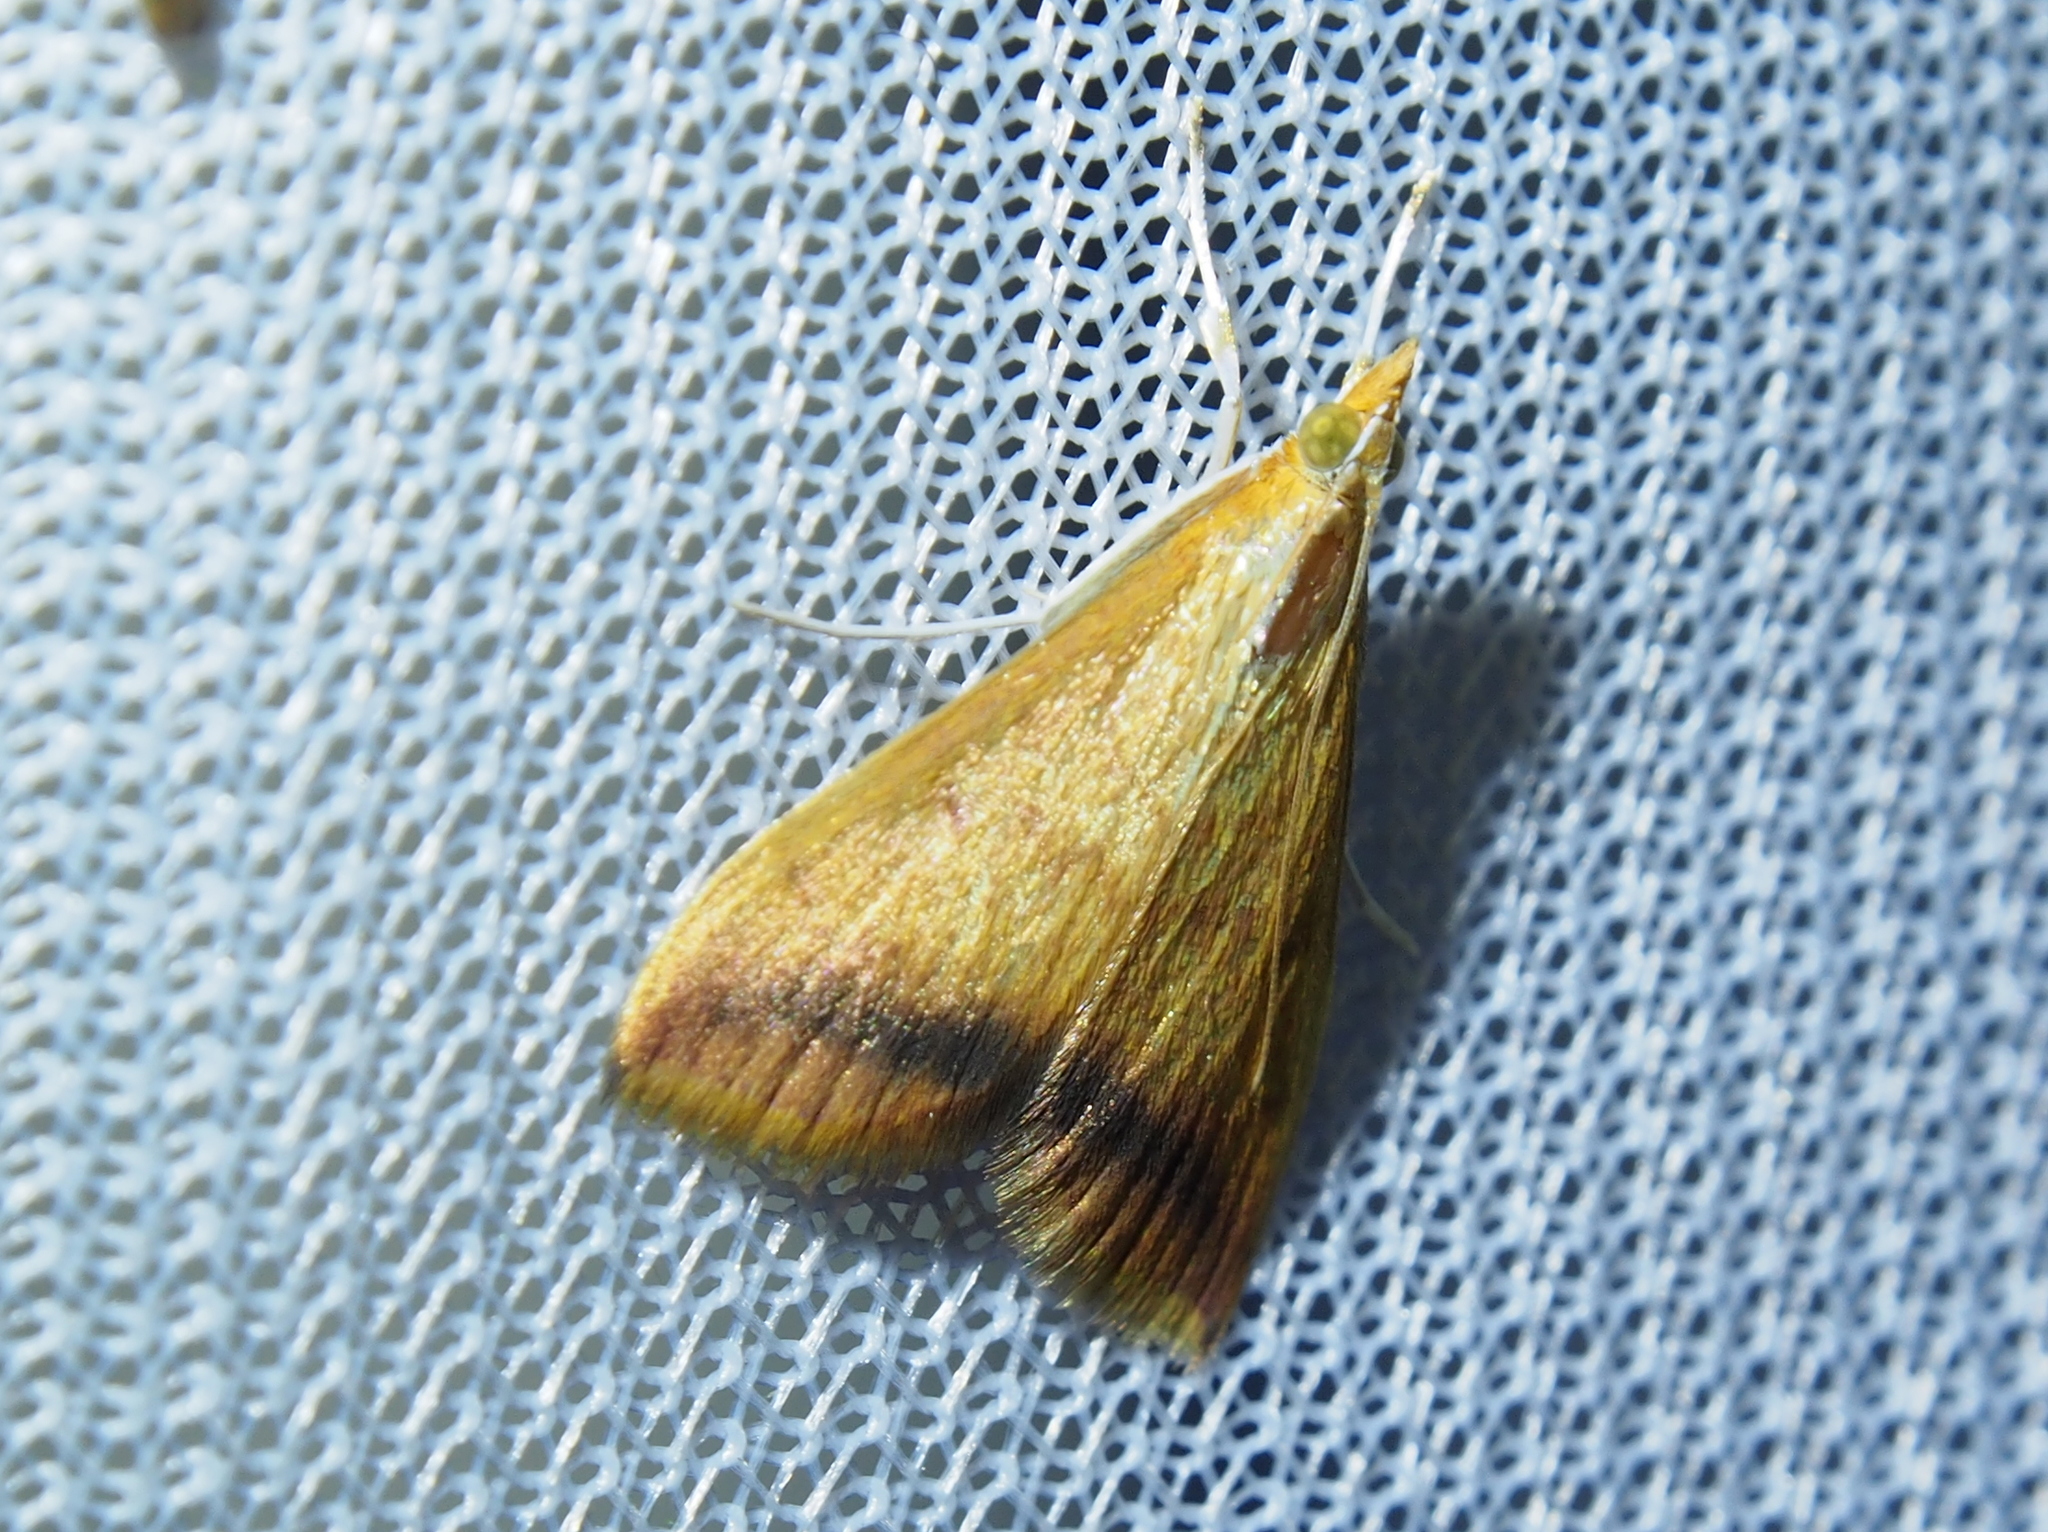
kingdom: Animalia
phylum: Arthropoda
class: Insecta
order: Lepidoptera
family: Crambidae
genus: Hyalorista
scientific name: Hyalorista exuvialis
